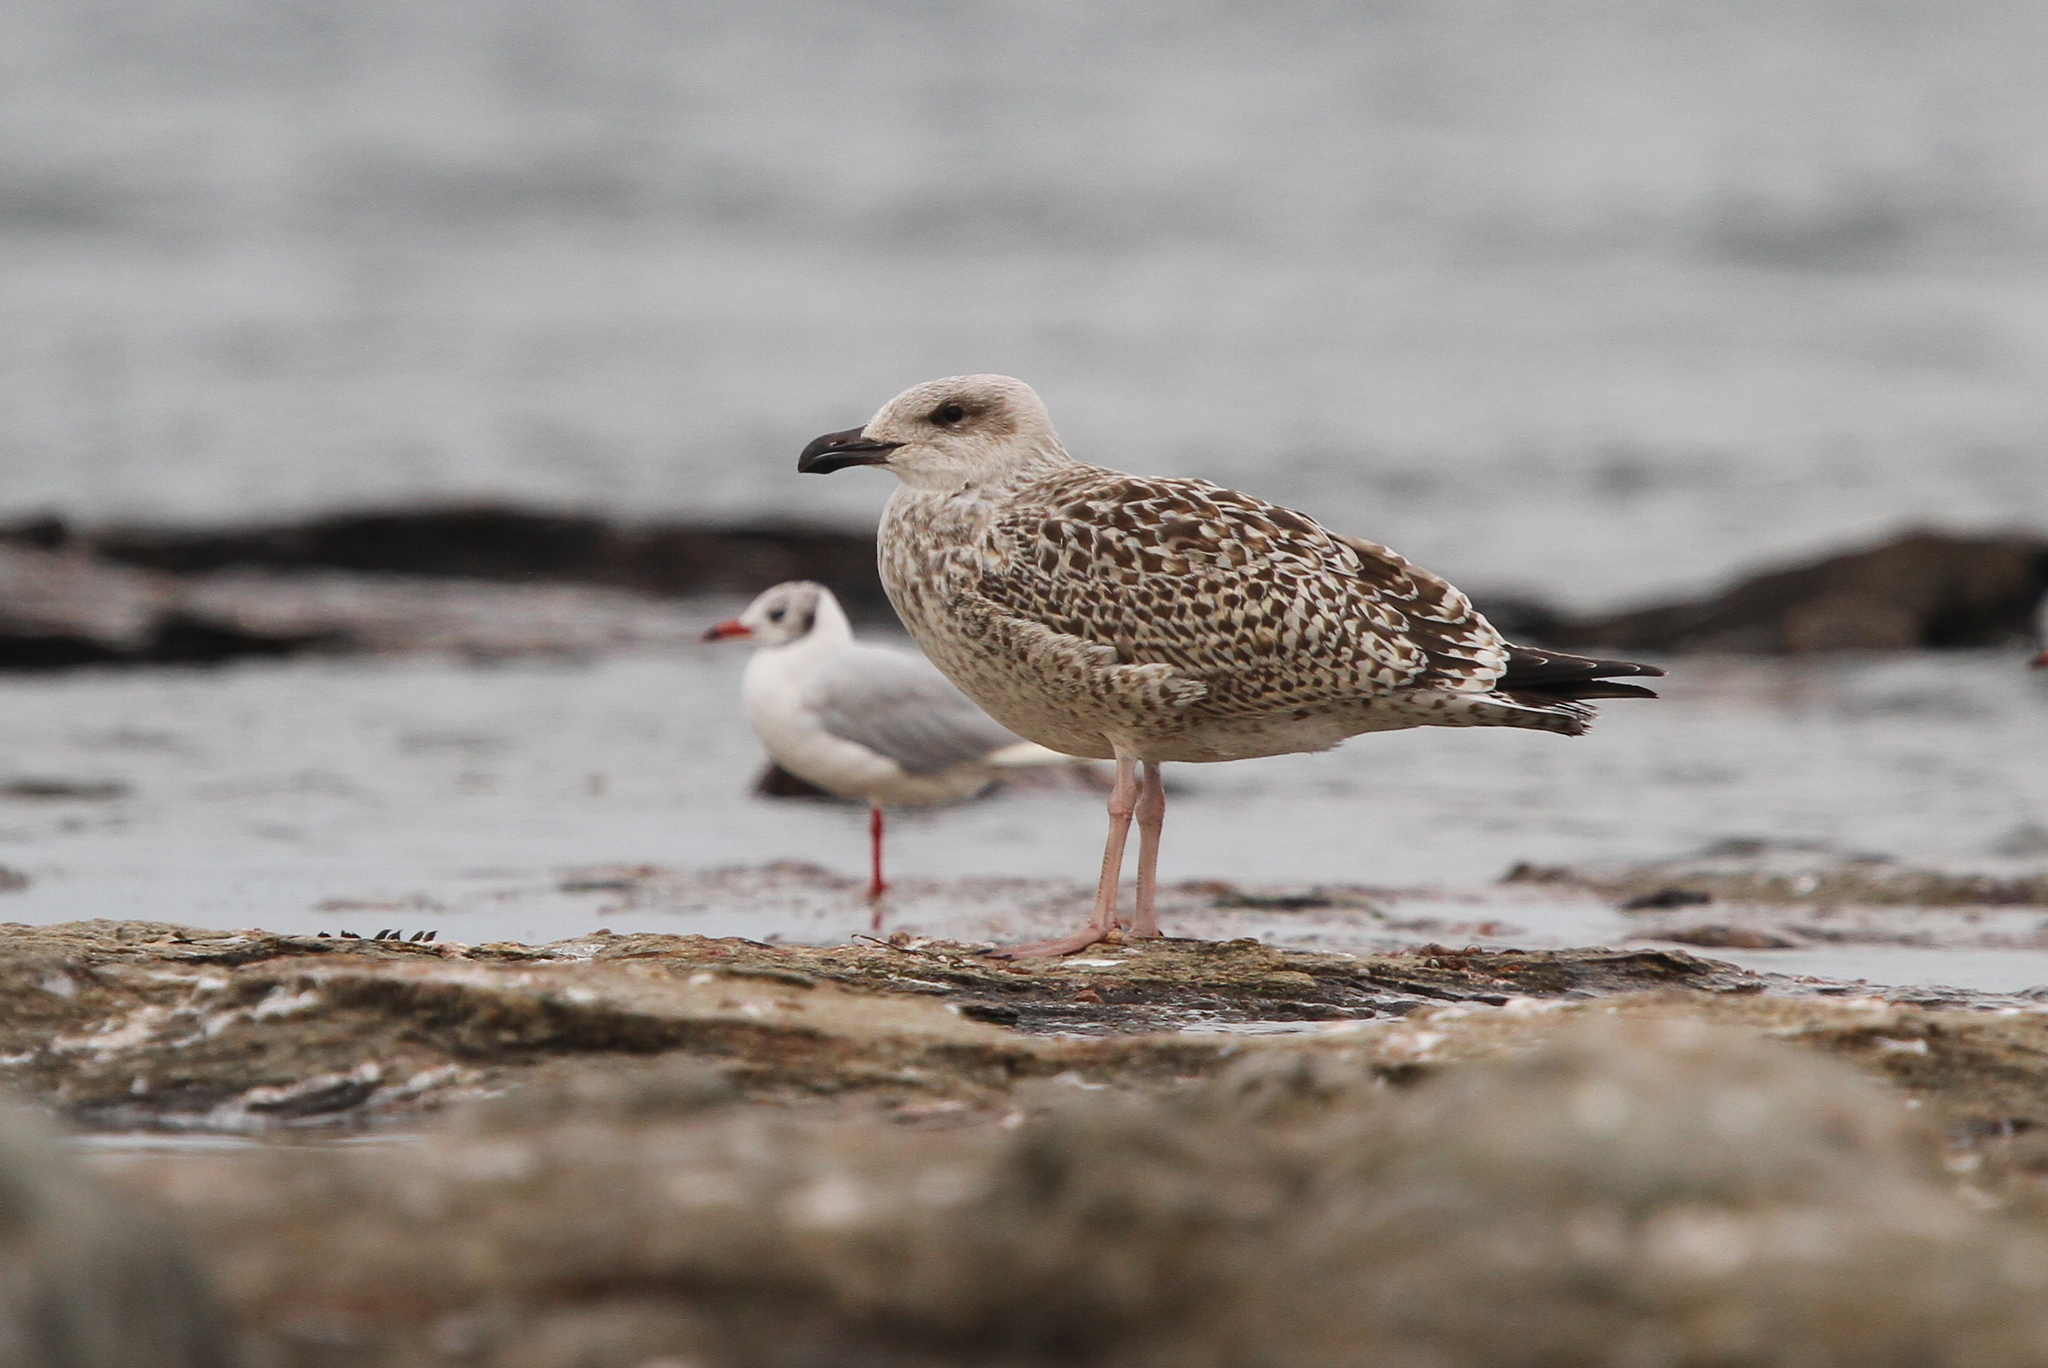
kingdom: Animalia
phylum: Chordata
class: Aves
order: Charadriiformes
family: Laridae
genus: Larus
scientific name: Larus marinus
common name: Great black-backed gull
